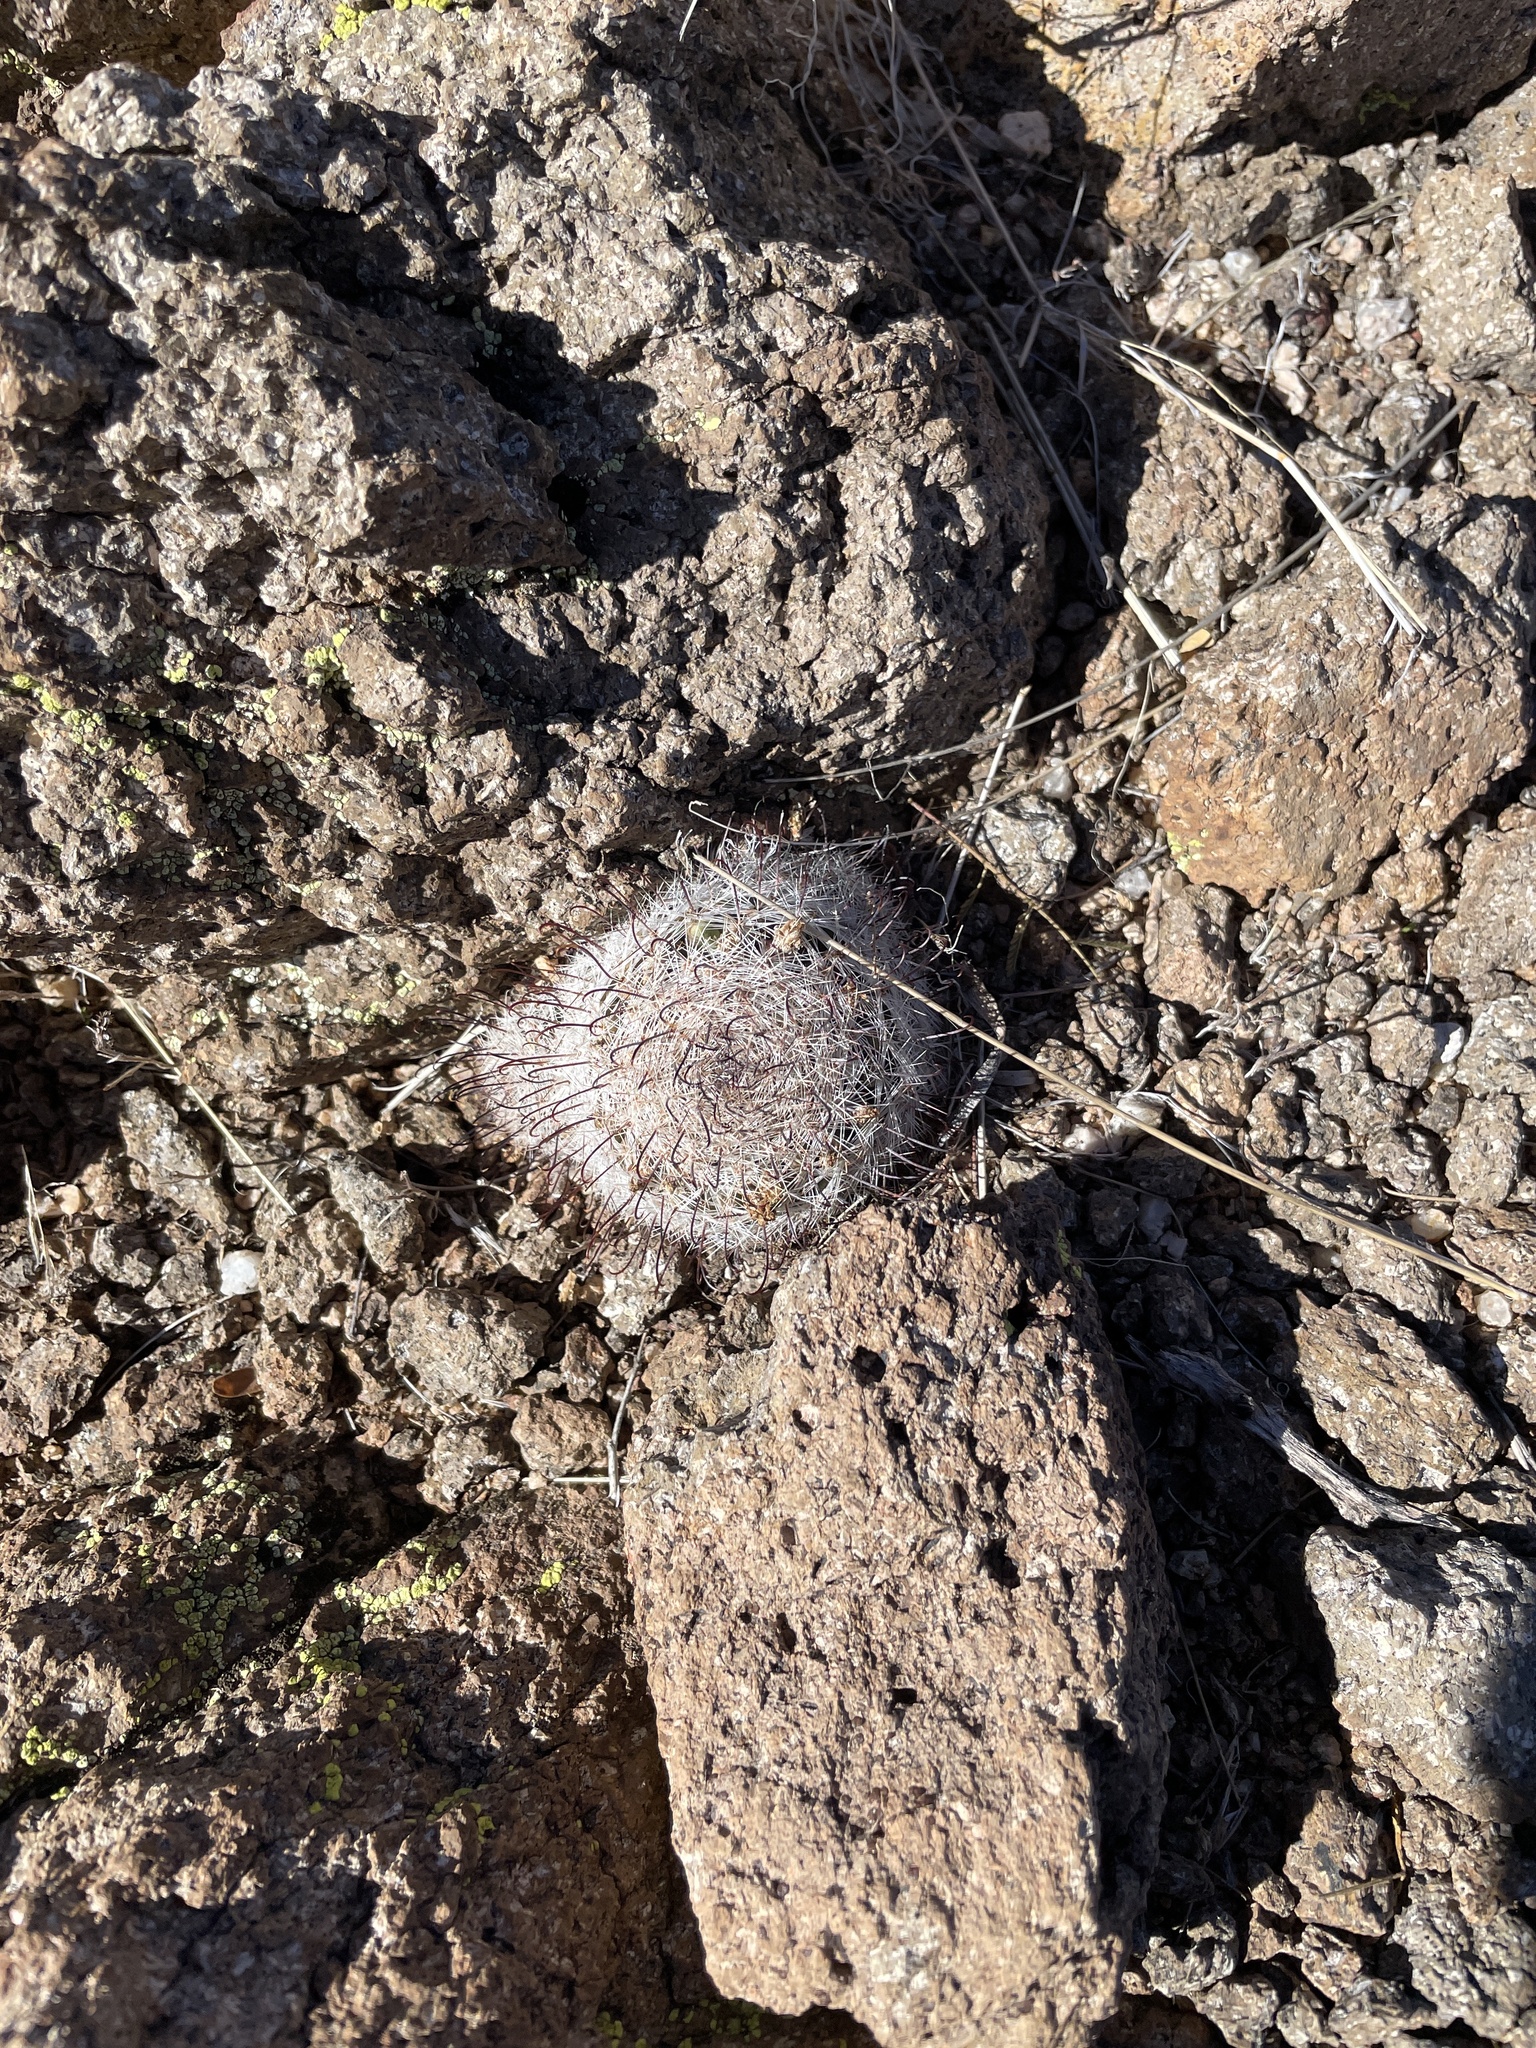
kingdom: Plantae
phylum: Tracheophyta
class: Magnoliopsida
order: Caryophyllales
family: Cactaceae
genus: Cochemiea
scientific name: Cochemiea grahamii
